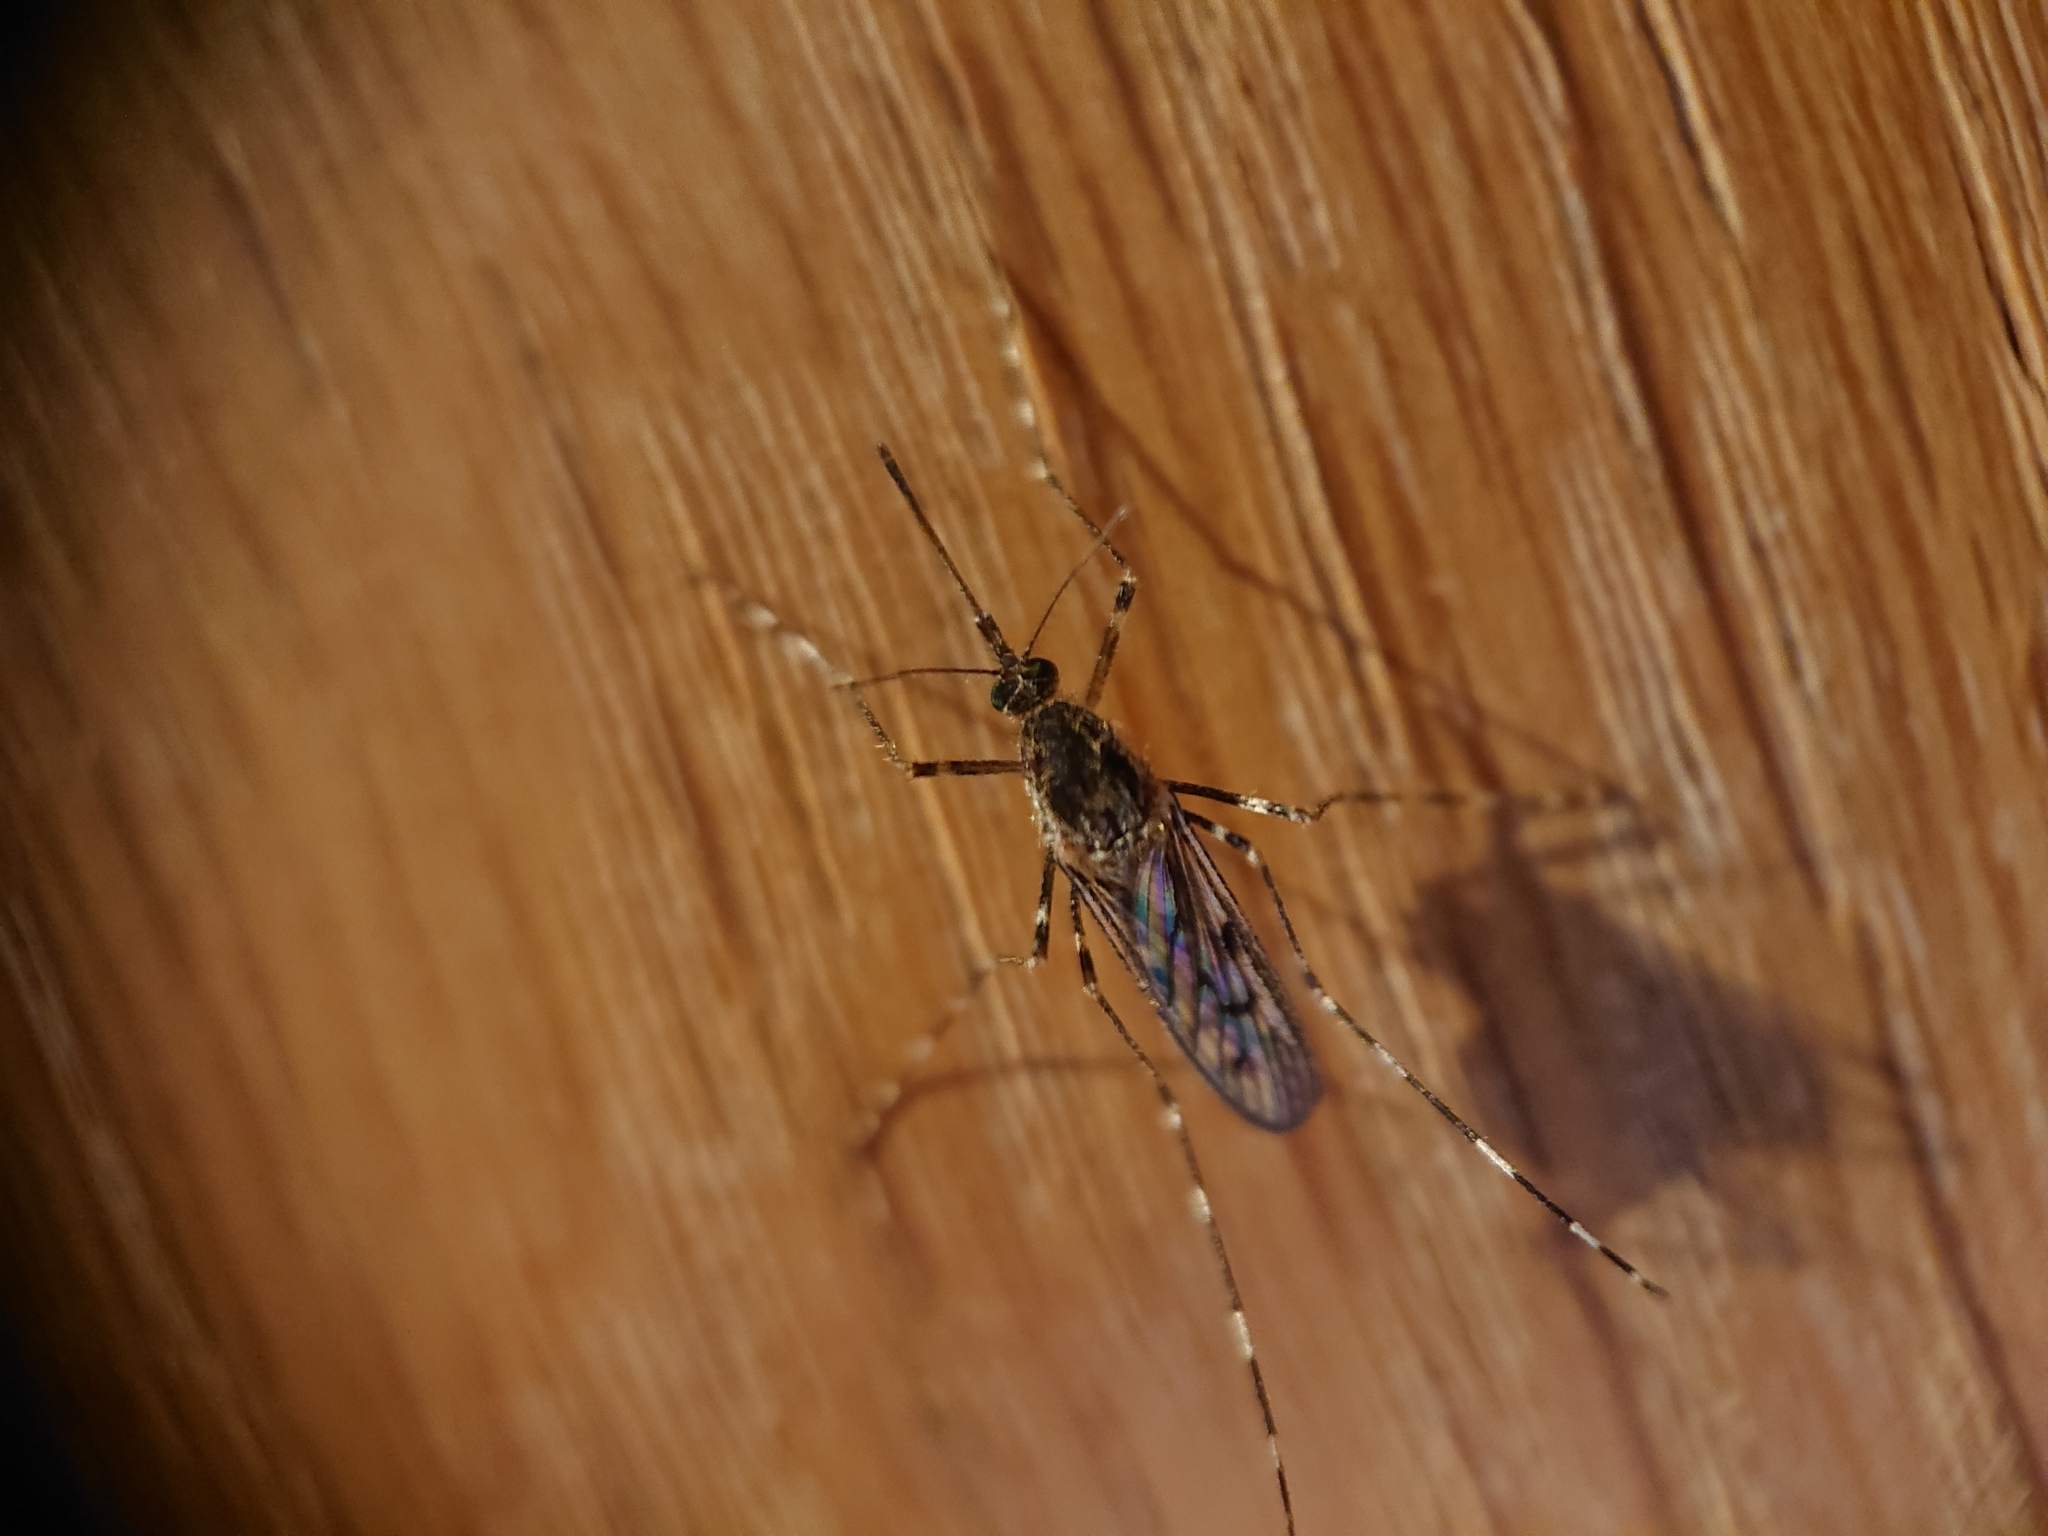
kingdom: Animalia
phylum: Arthropoda
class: Insecta
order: Diptera
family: Culicidae
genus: Culiseta
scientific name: Culiseta annulata
